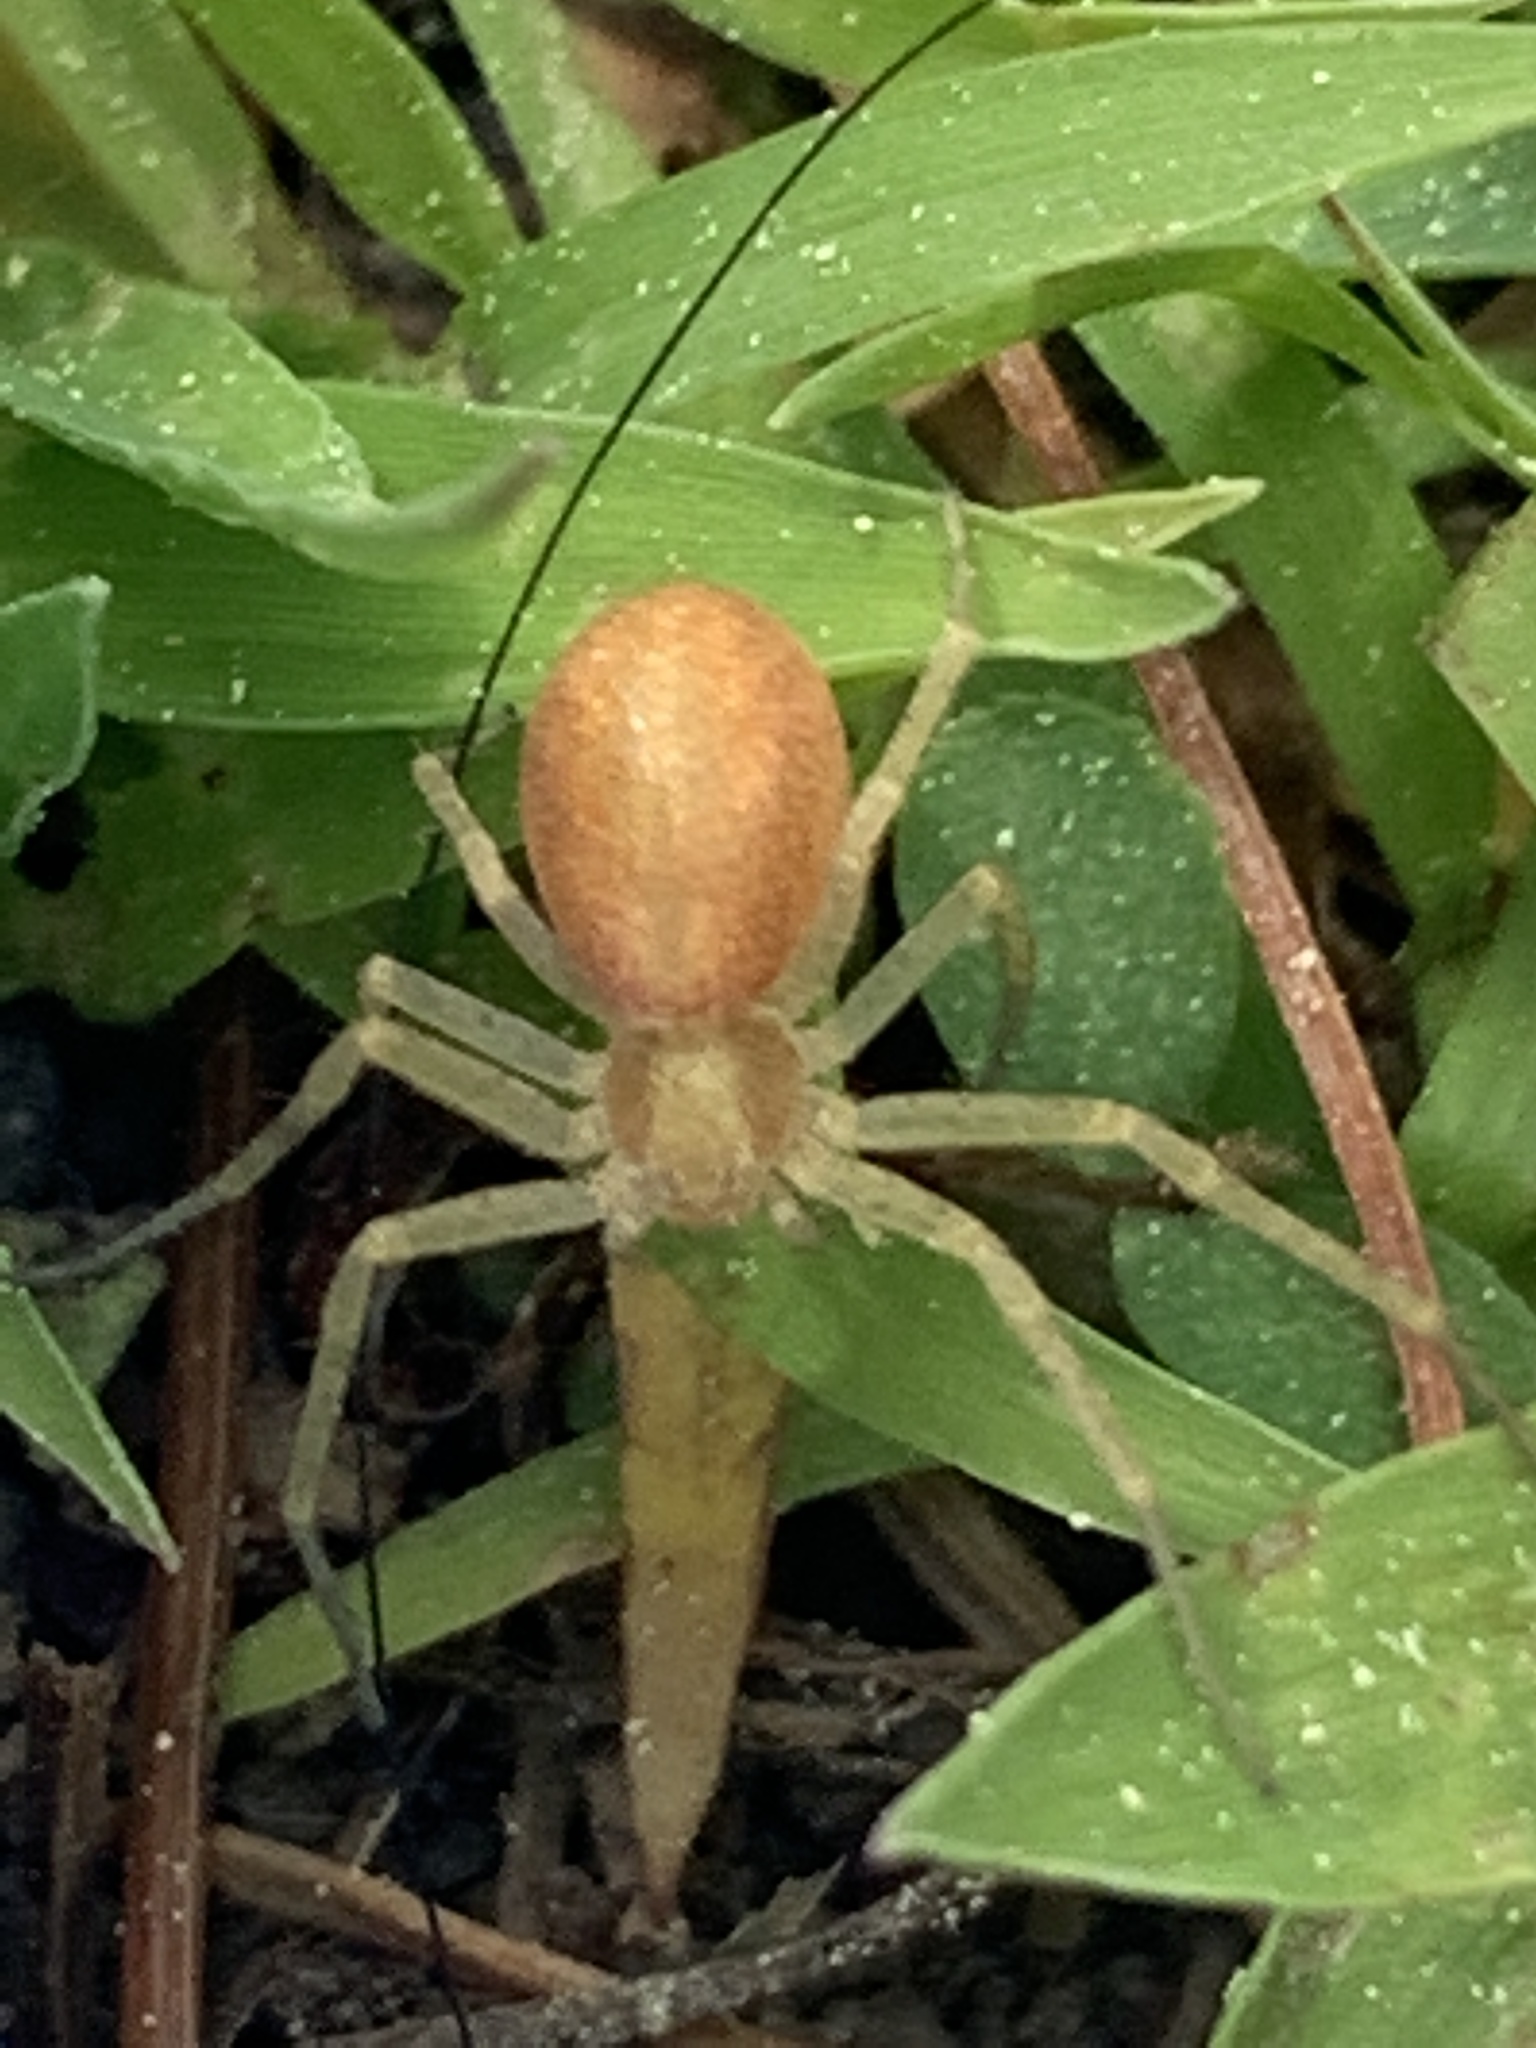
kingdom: Animalia
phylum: Arthropoda
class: Arachnida
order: Araneae
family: Philodromidae
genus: Philodromus
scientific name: Philodromus rufus
